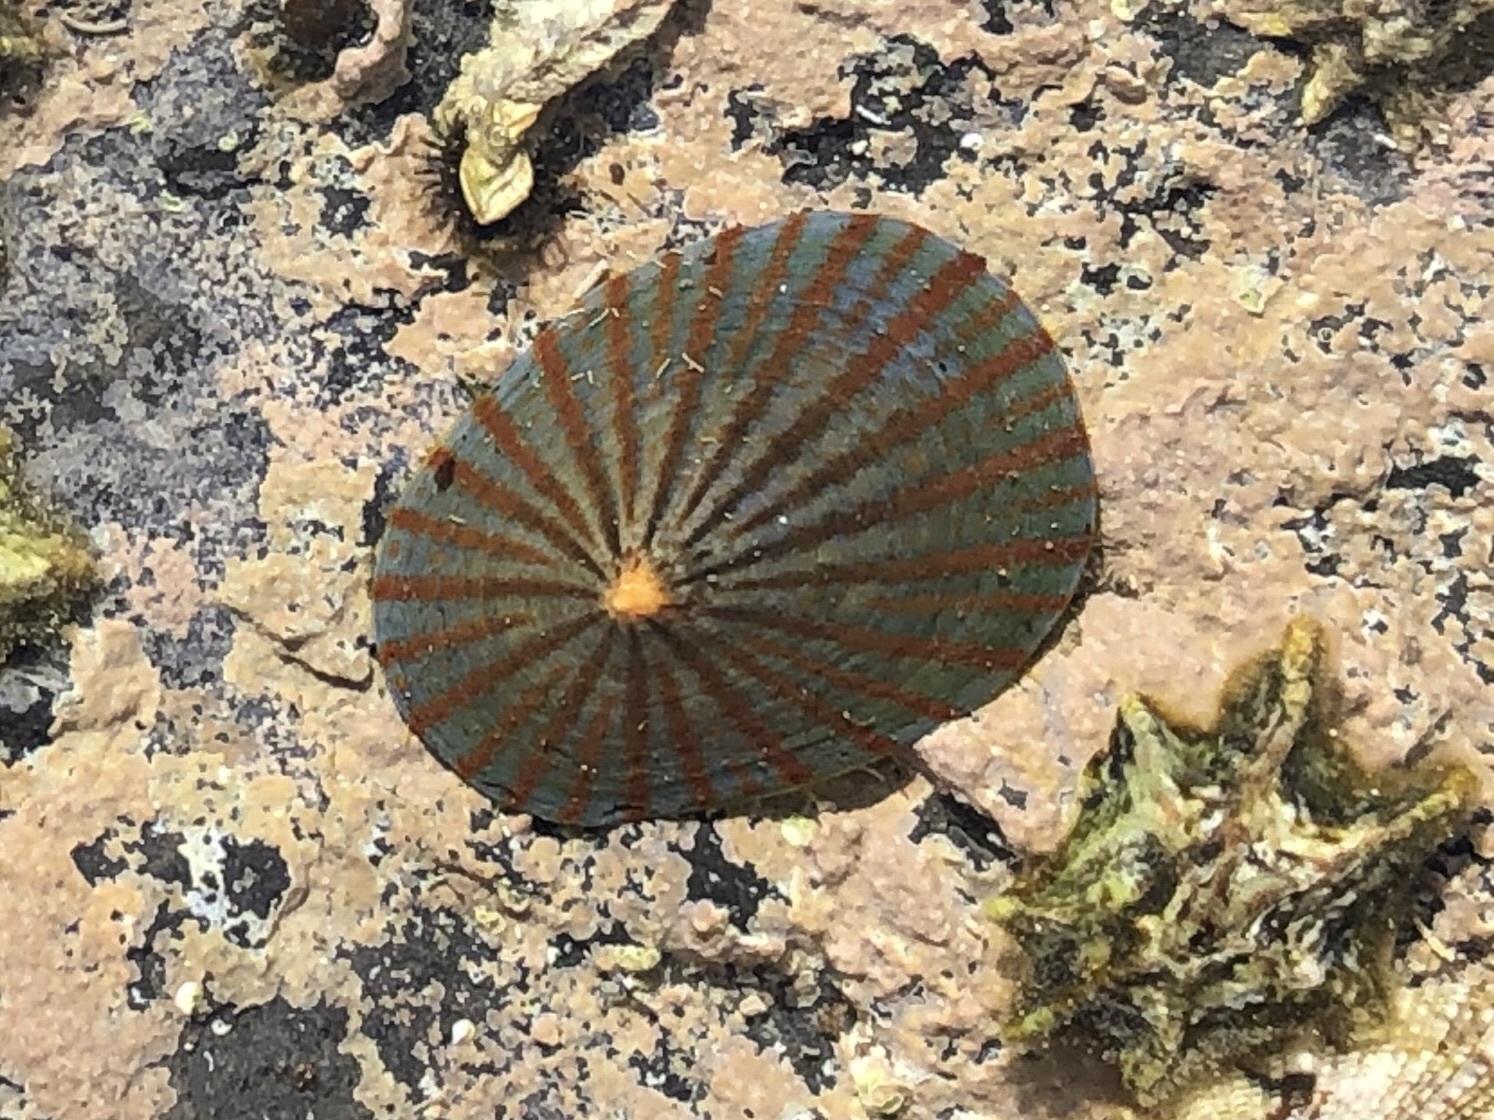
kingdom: Animalia
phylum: Mollusca
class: Gastropoda
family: Nacellidae
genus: Cellana
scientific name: Cellana nigrolineata
